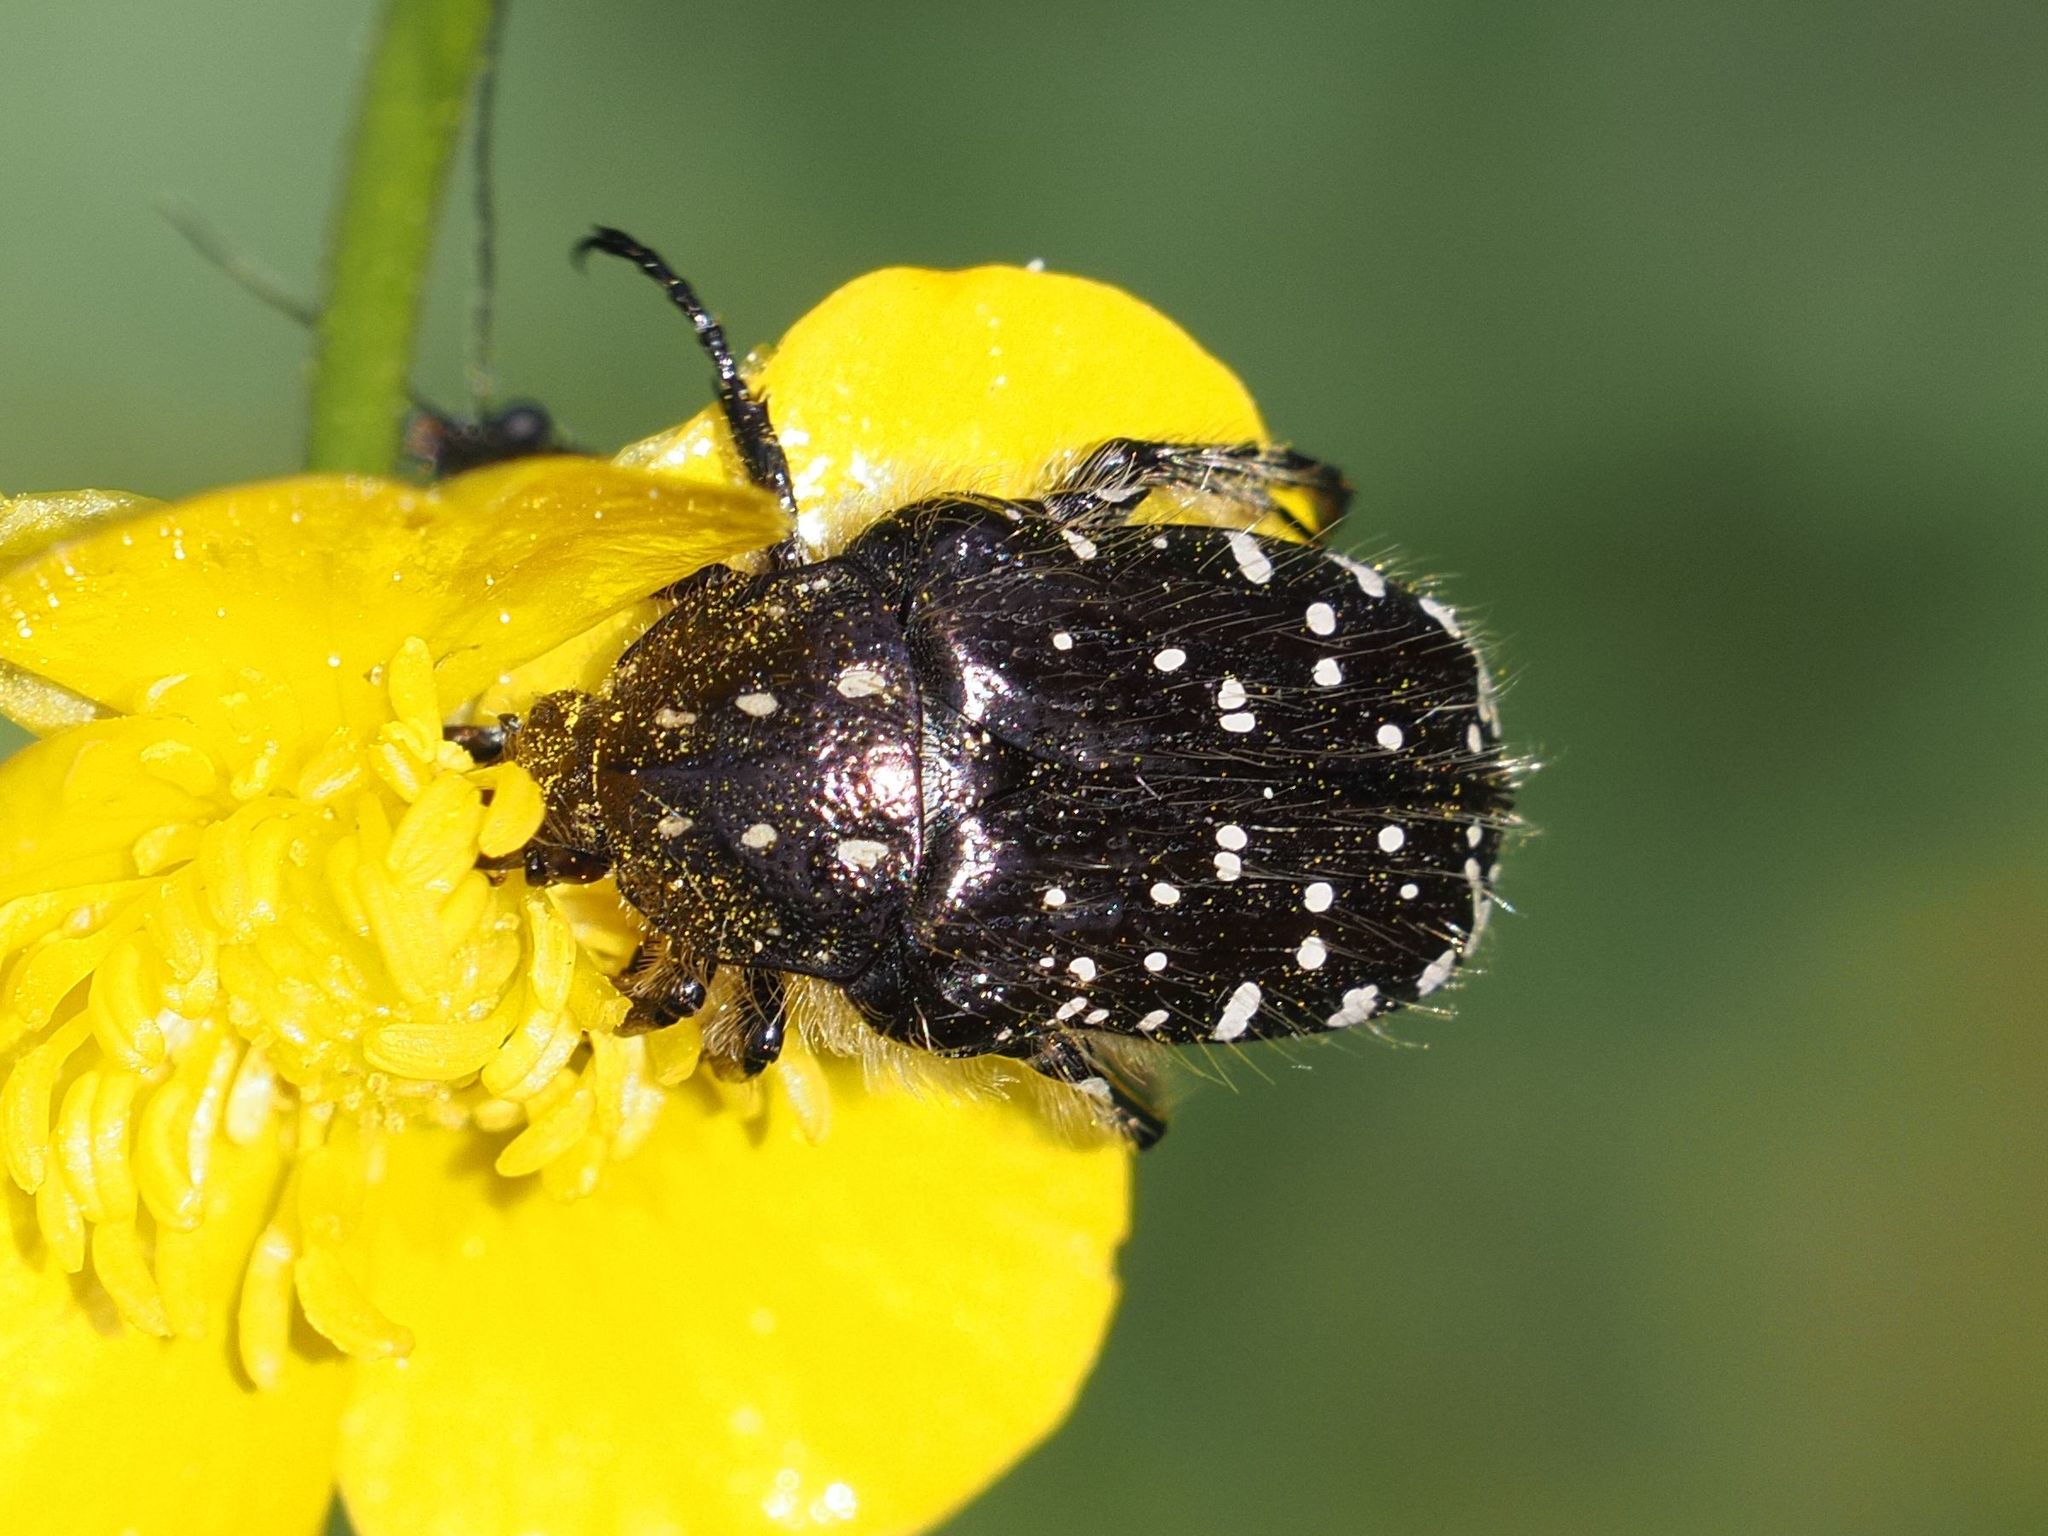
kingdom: Animalia
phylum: Arthropoda
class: Insecta
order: Coleoptera
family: Scarabaeidae
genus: Oxythyrea
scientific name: Oxythyrea funesta
